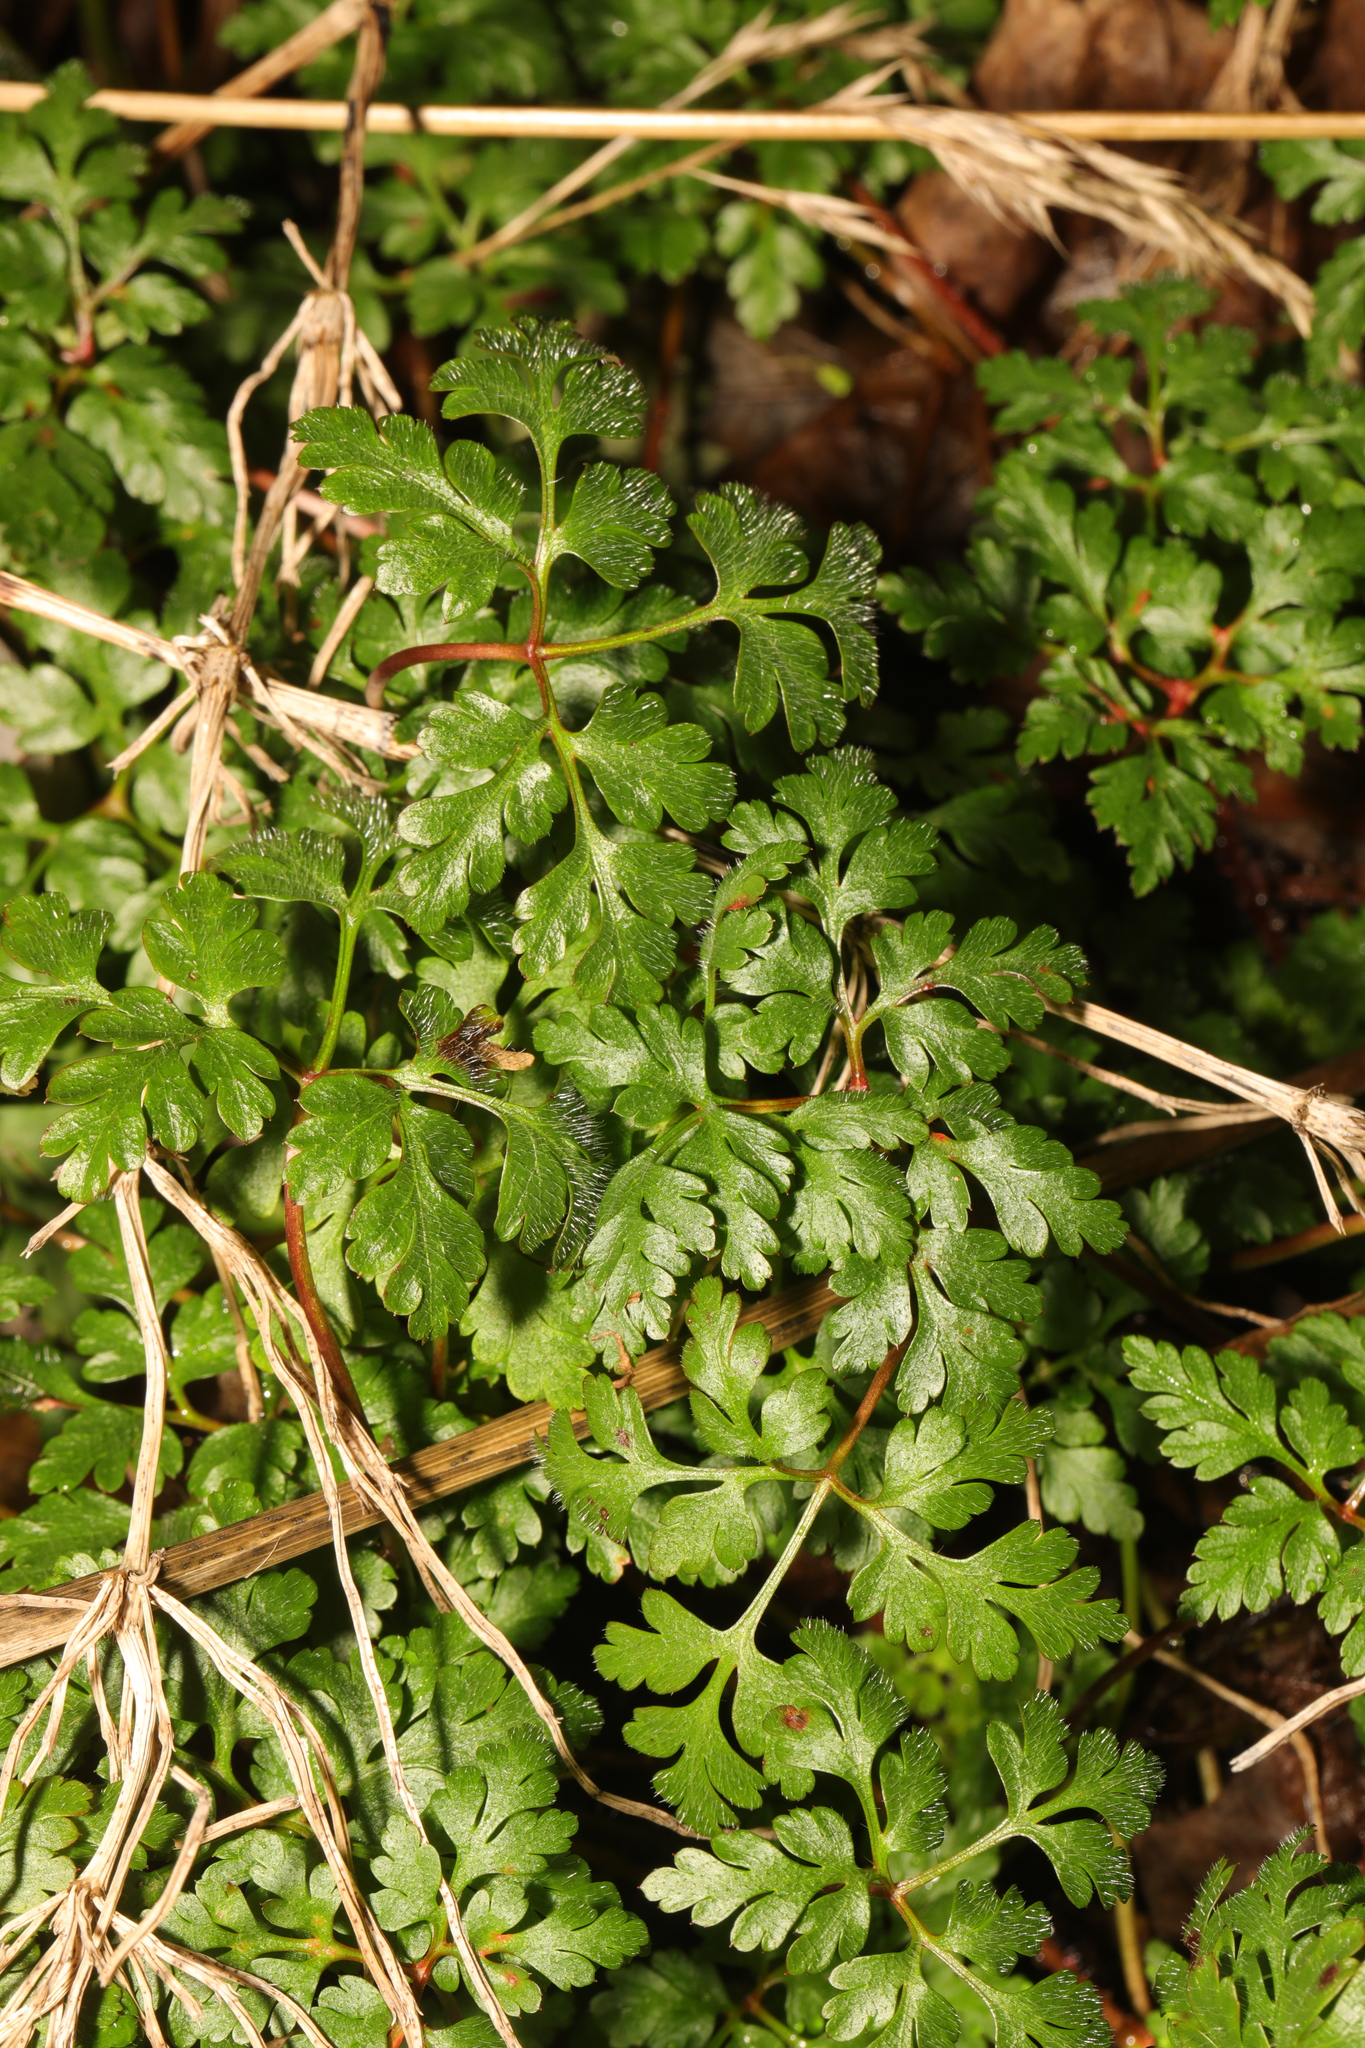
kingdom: Plantae
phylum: Tracheophyta
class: Magnoliopsida
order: Geraniales
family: Geraniaceae
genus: Geranium
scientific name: Geranium robertianum
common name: Herb-robert
